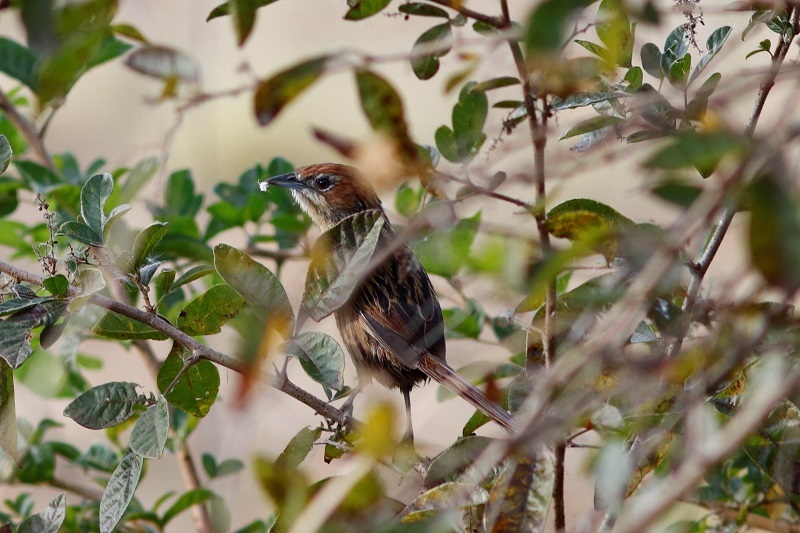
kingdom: Animalia
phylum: Chordata
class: Aves
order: Passeriformes
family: Macrosphenidae
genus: Sphenoeacus
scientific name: Sphenoeacus afer
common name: Cape grassbird
